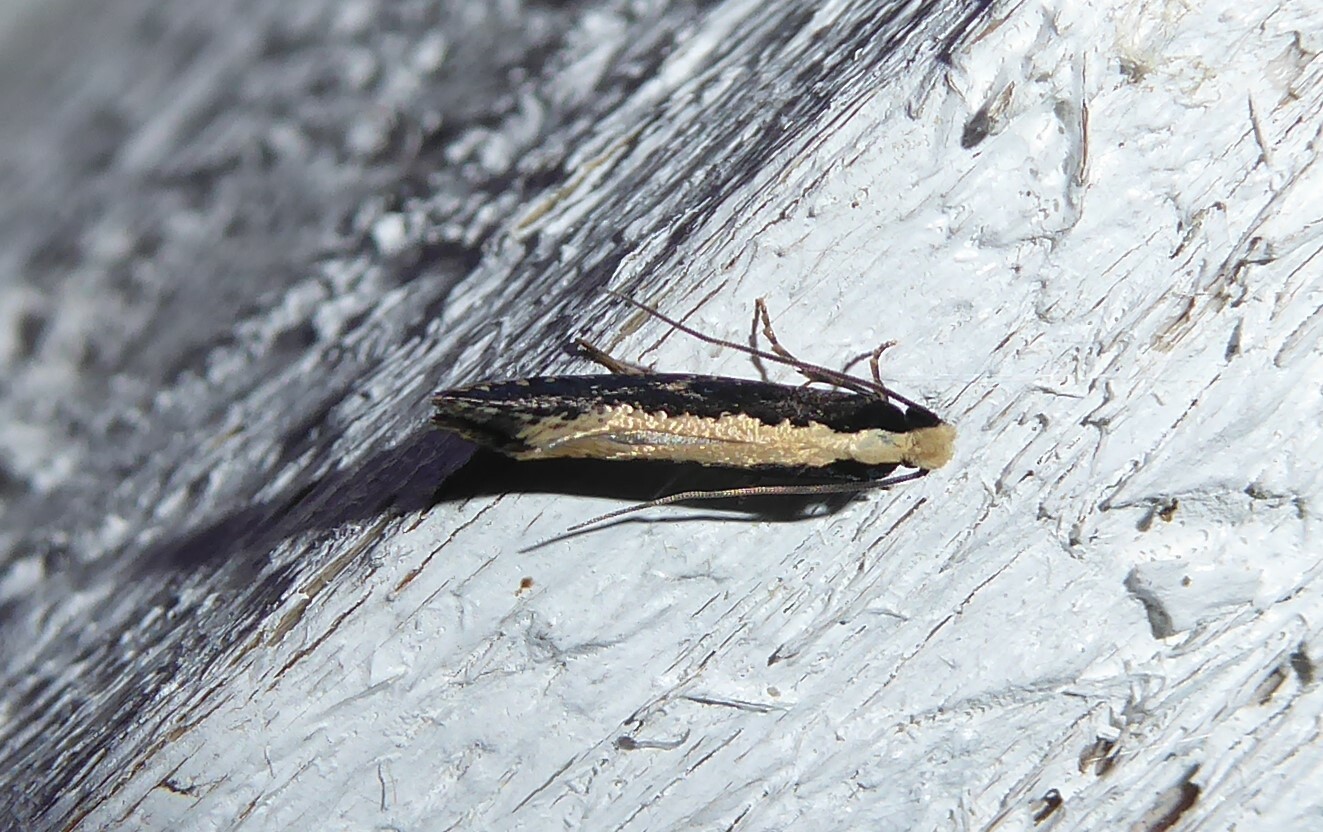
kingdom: Animalia
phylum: Arthropoda
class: Insecta
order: Lepidoptera
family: Tineidae
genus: Monopis
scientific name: Monopis ethelella
